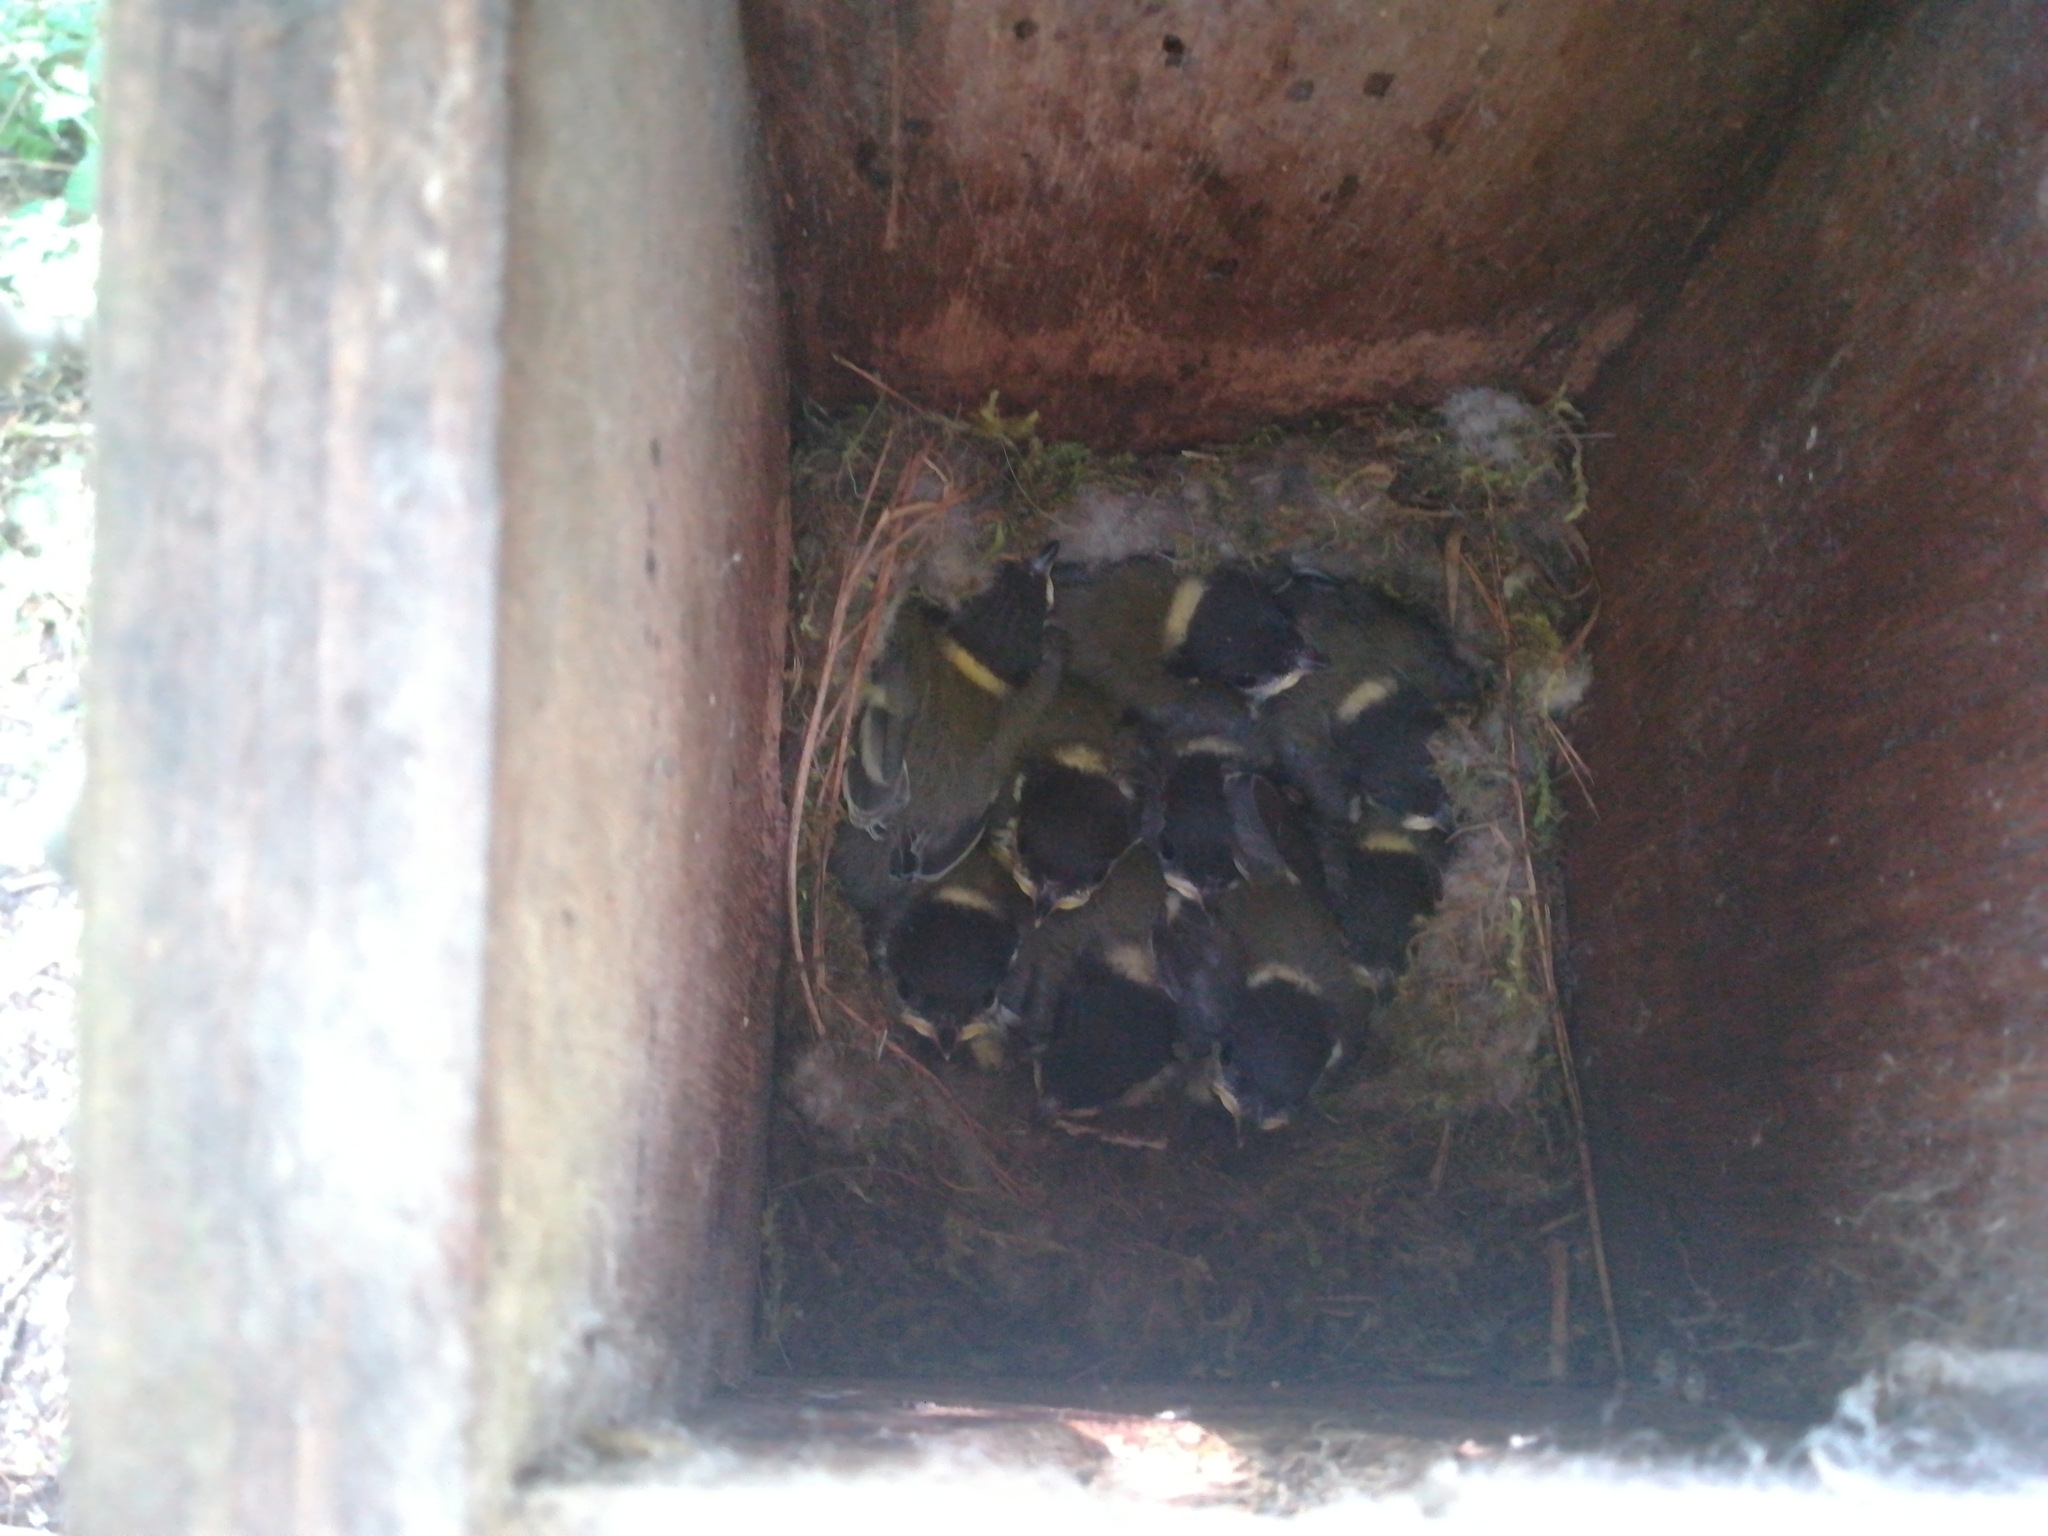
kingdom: Animalia
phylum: Chordata
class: Aves
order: Passeriformes
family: Paridae
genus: Parus
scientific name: Parus major
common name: Great tit
